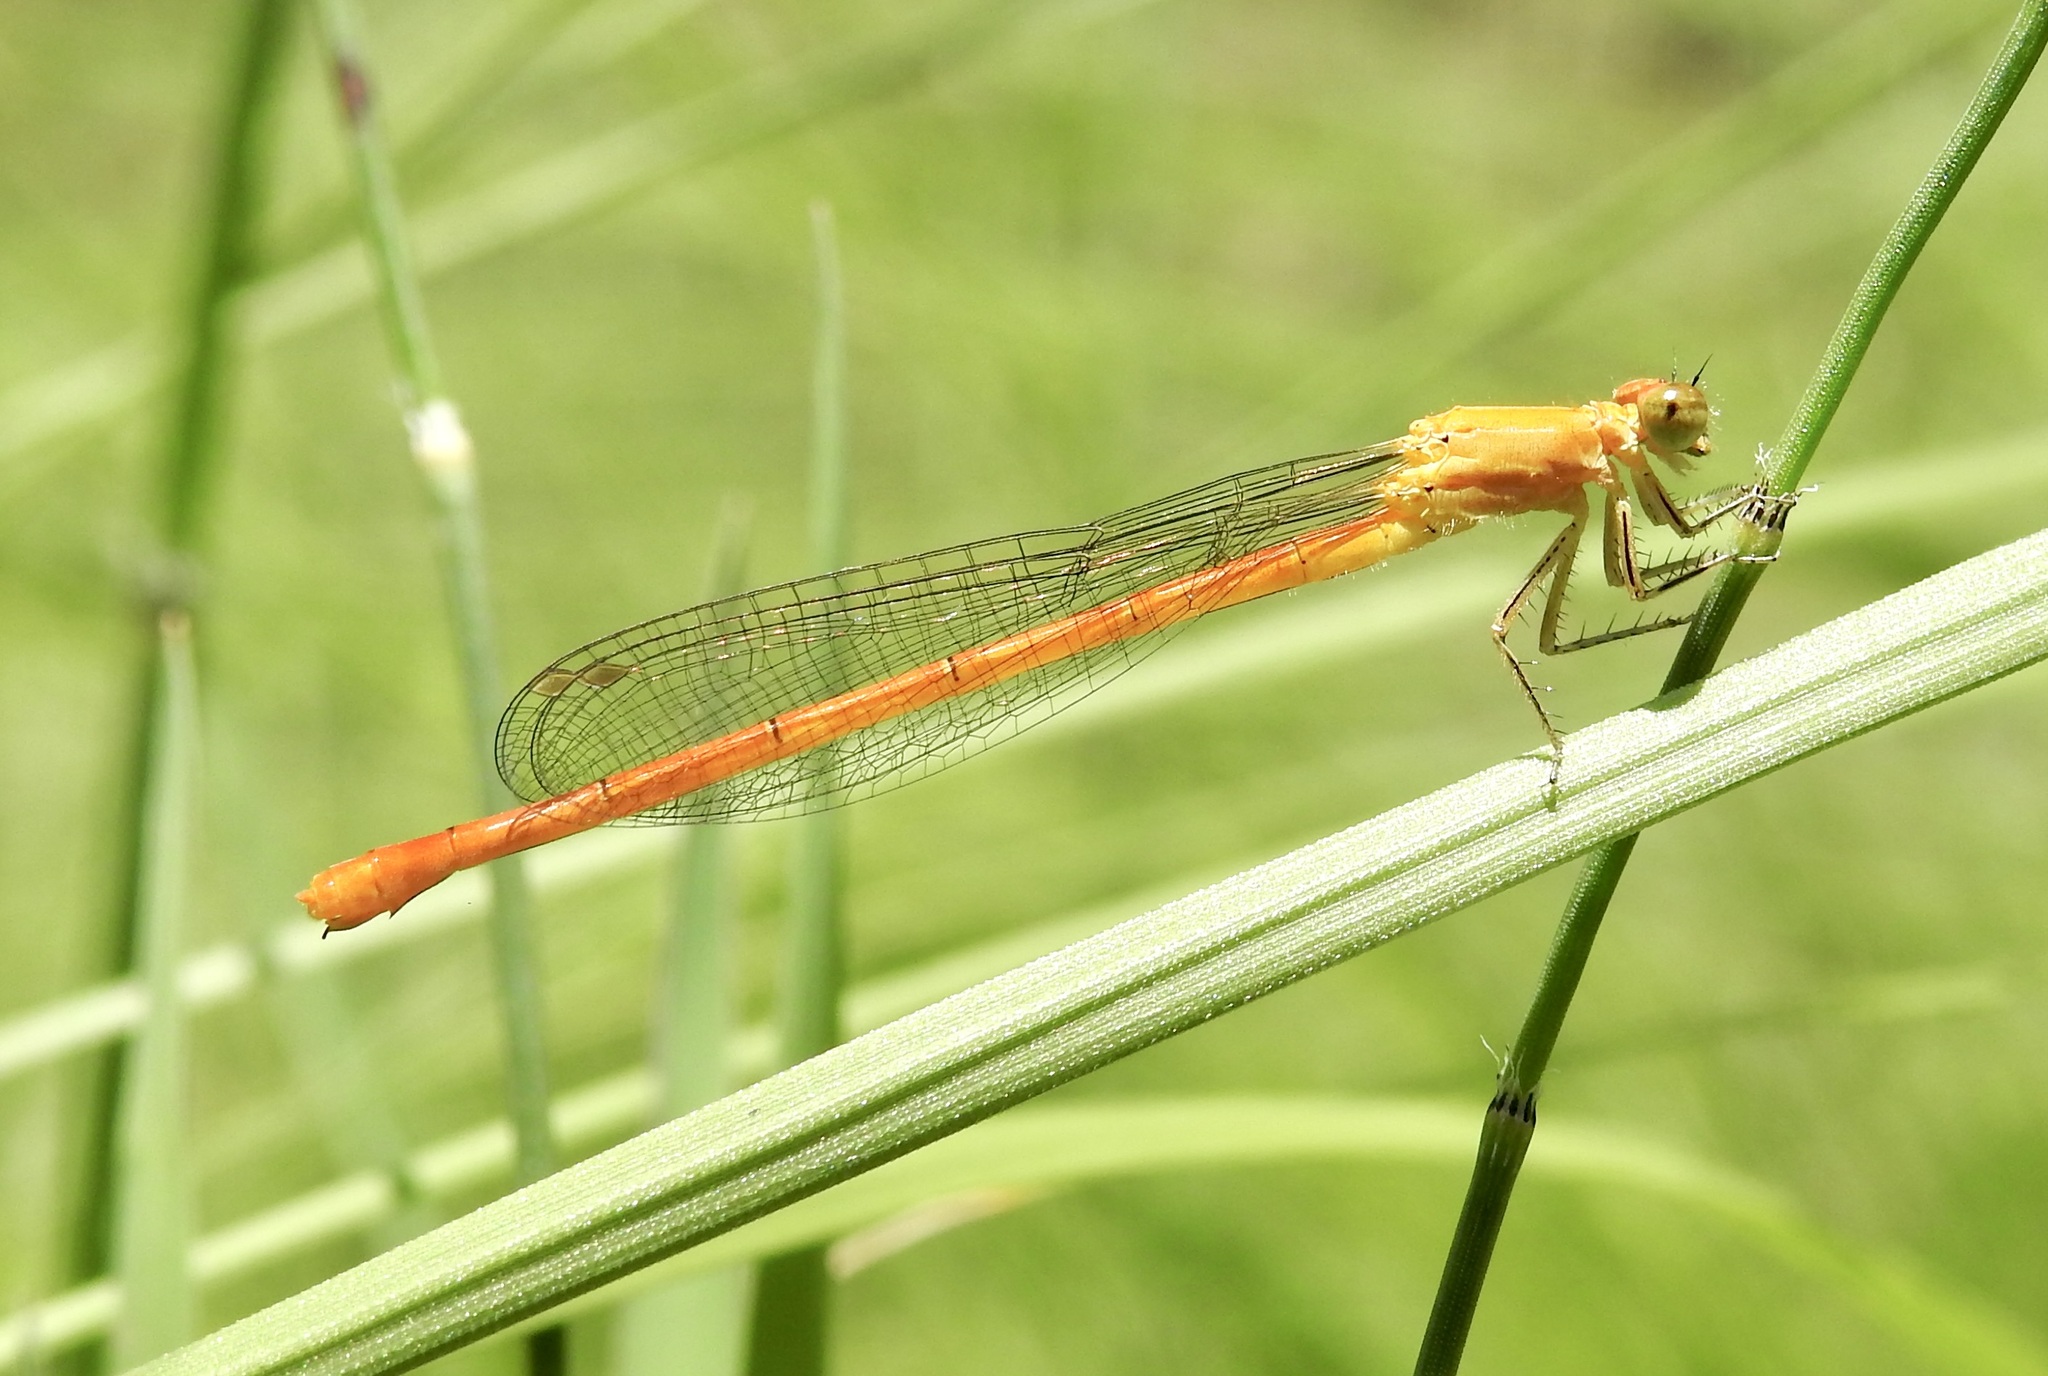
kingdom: Animalia
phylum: Arthropoda
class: Insecta
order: Odonata
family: Coenagrionidae
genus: Hesperagrion
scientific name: Hesperagrion heterodoxum
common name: Painted damsel
